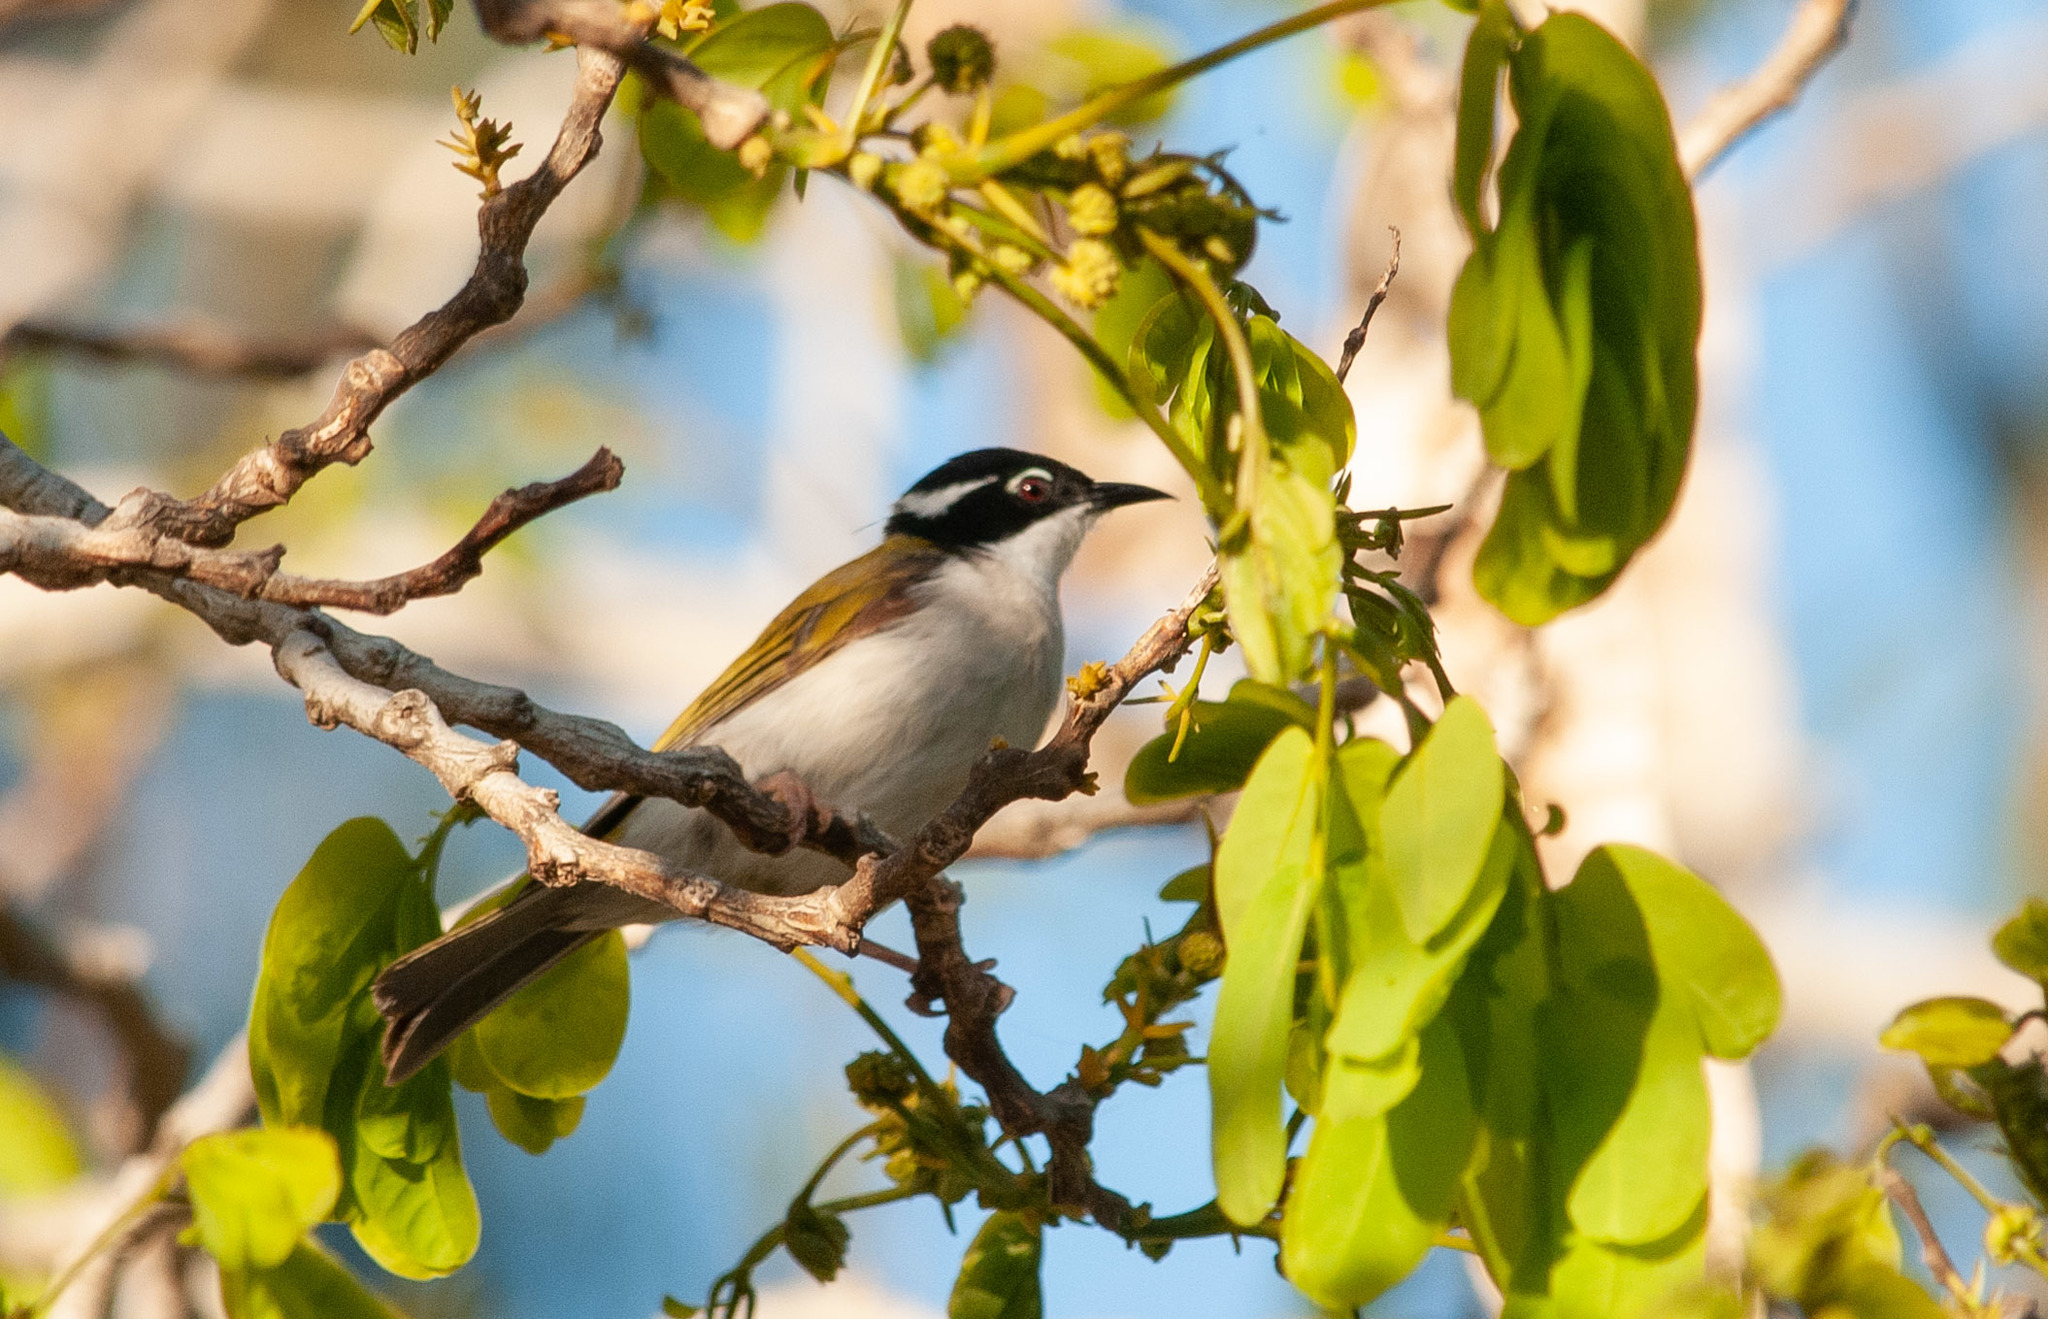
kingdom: Animalia
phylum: Chordata
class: Aves
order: Passeriformes
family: Meliphagidae
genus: Melithreptus
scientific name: Melithreptus albogularis
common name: White-throated honeyeater
